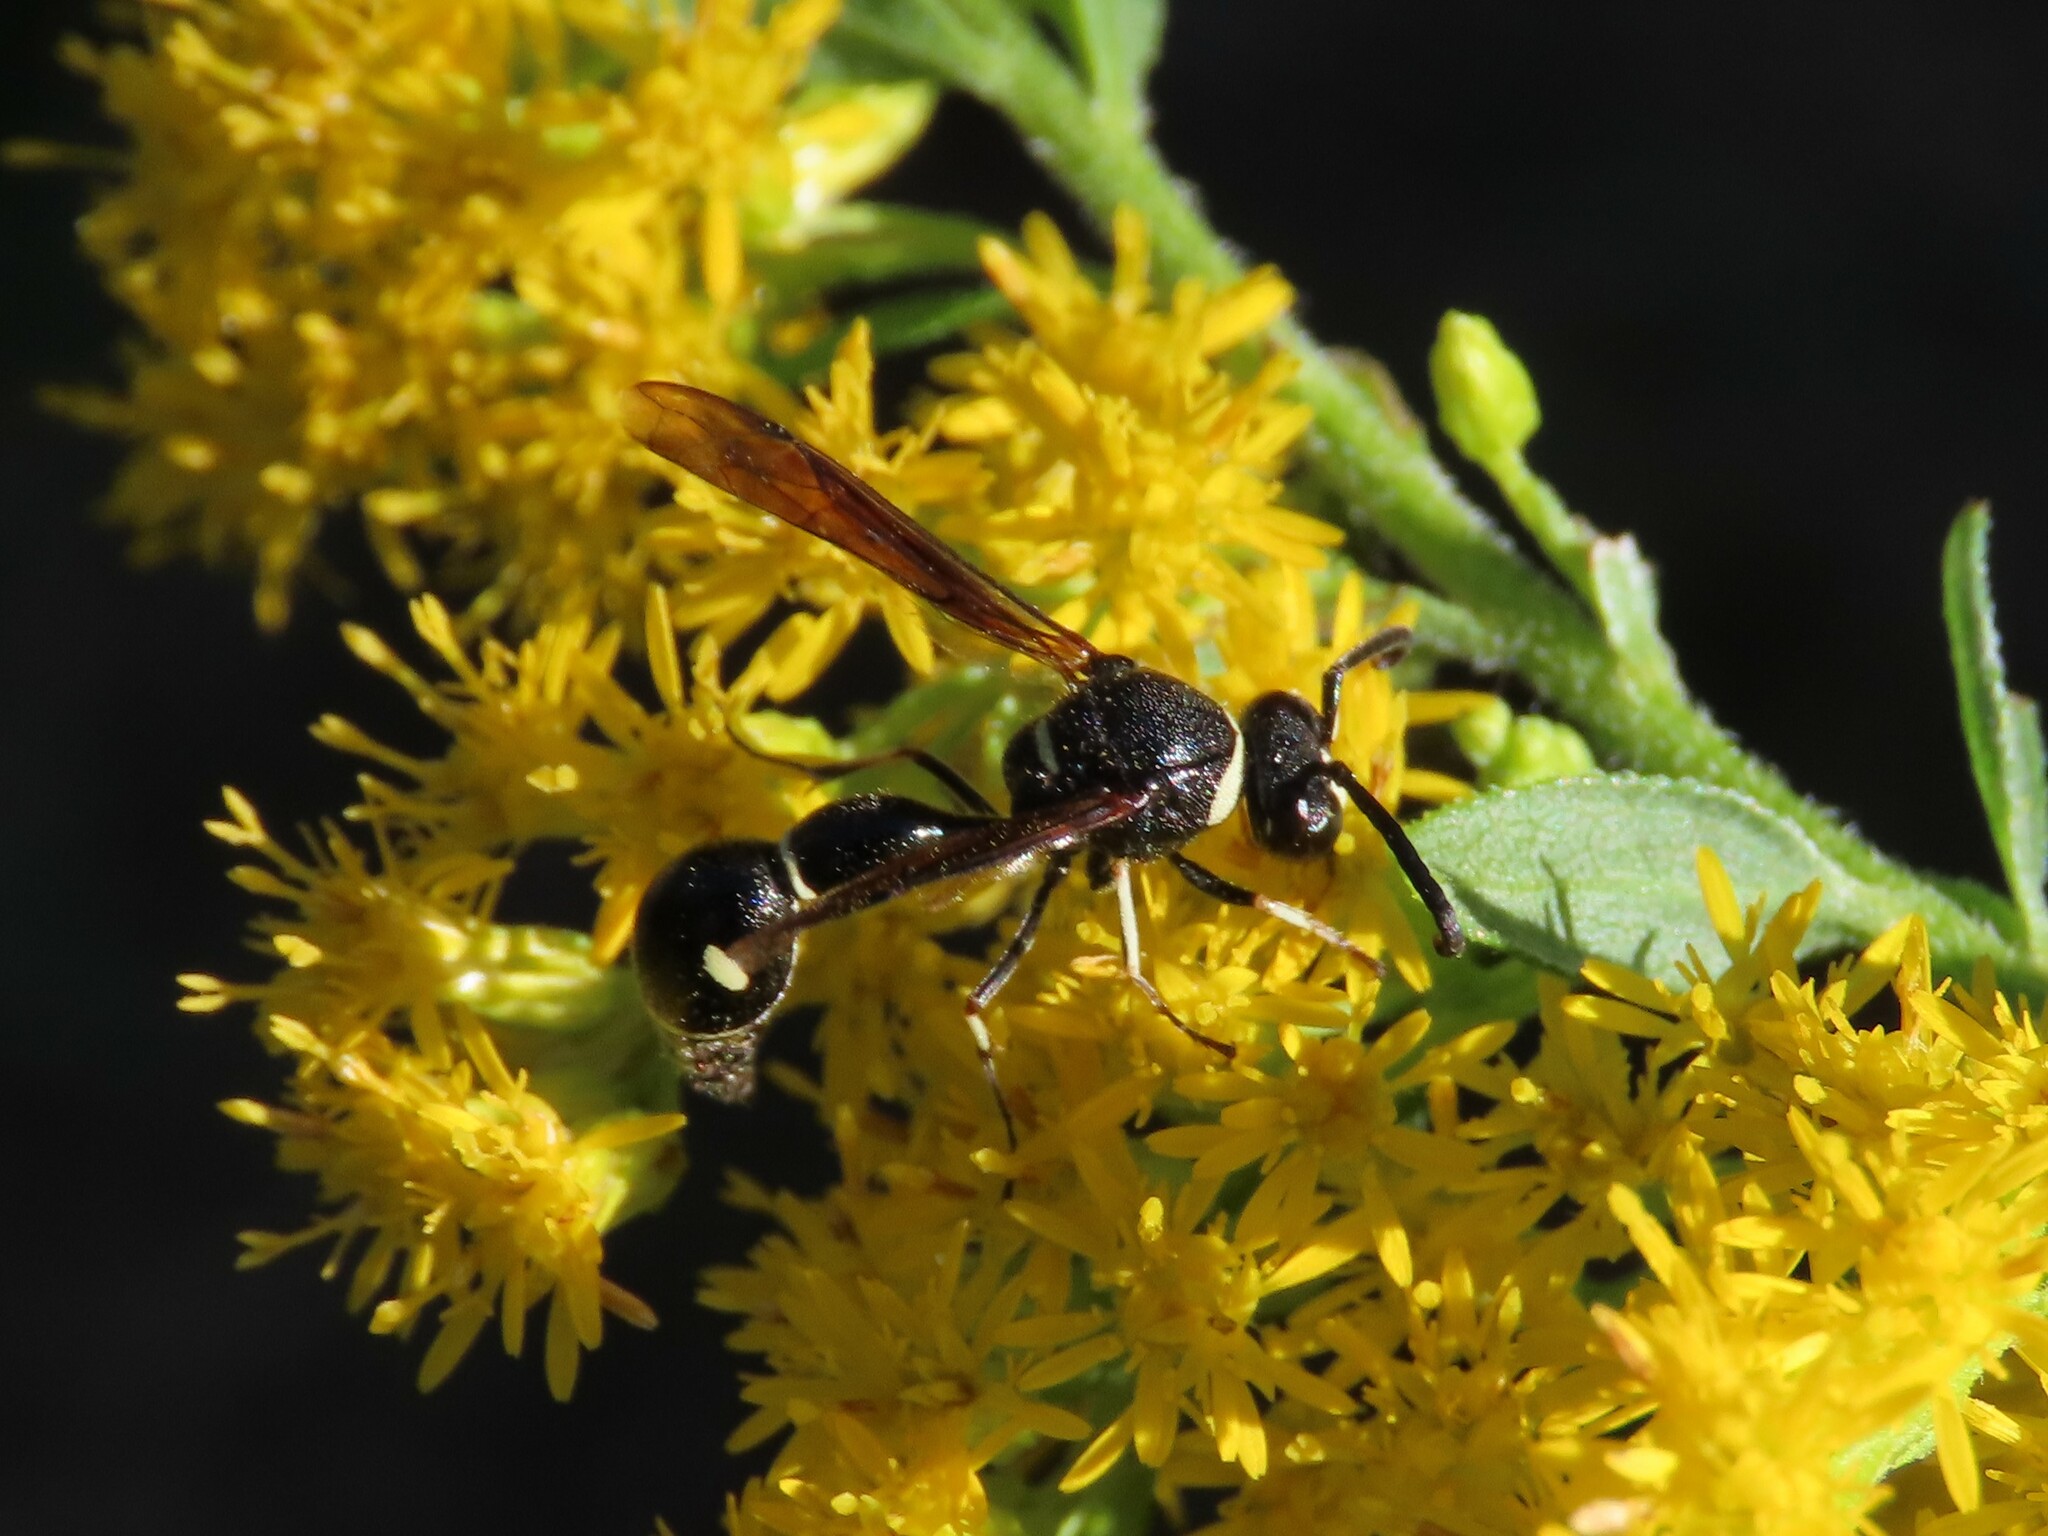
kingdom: Animalia
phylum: Arthropoda
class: Insecta
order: Hymenoptera
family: Vespidae
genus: Eumenes
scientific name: Eumenes fraternus
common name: Fraternal potter wasp
